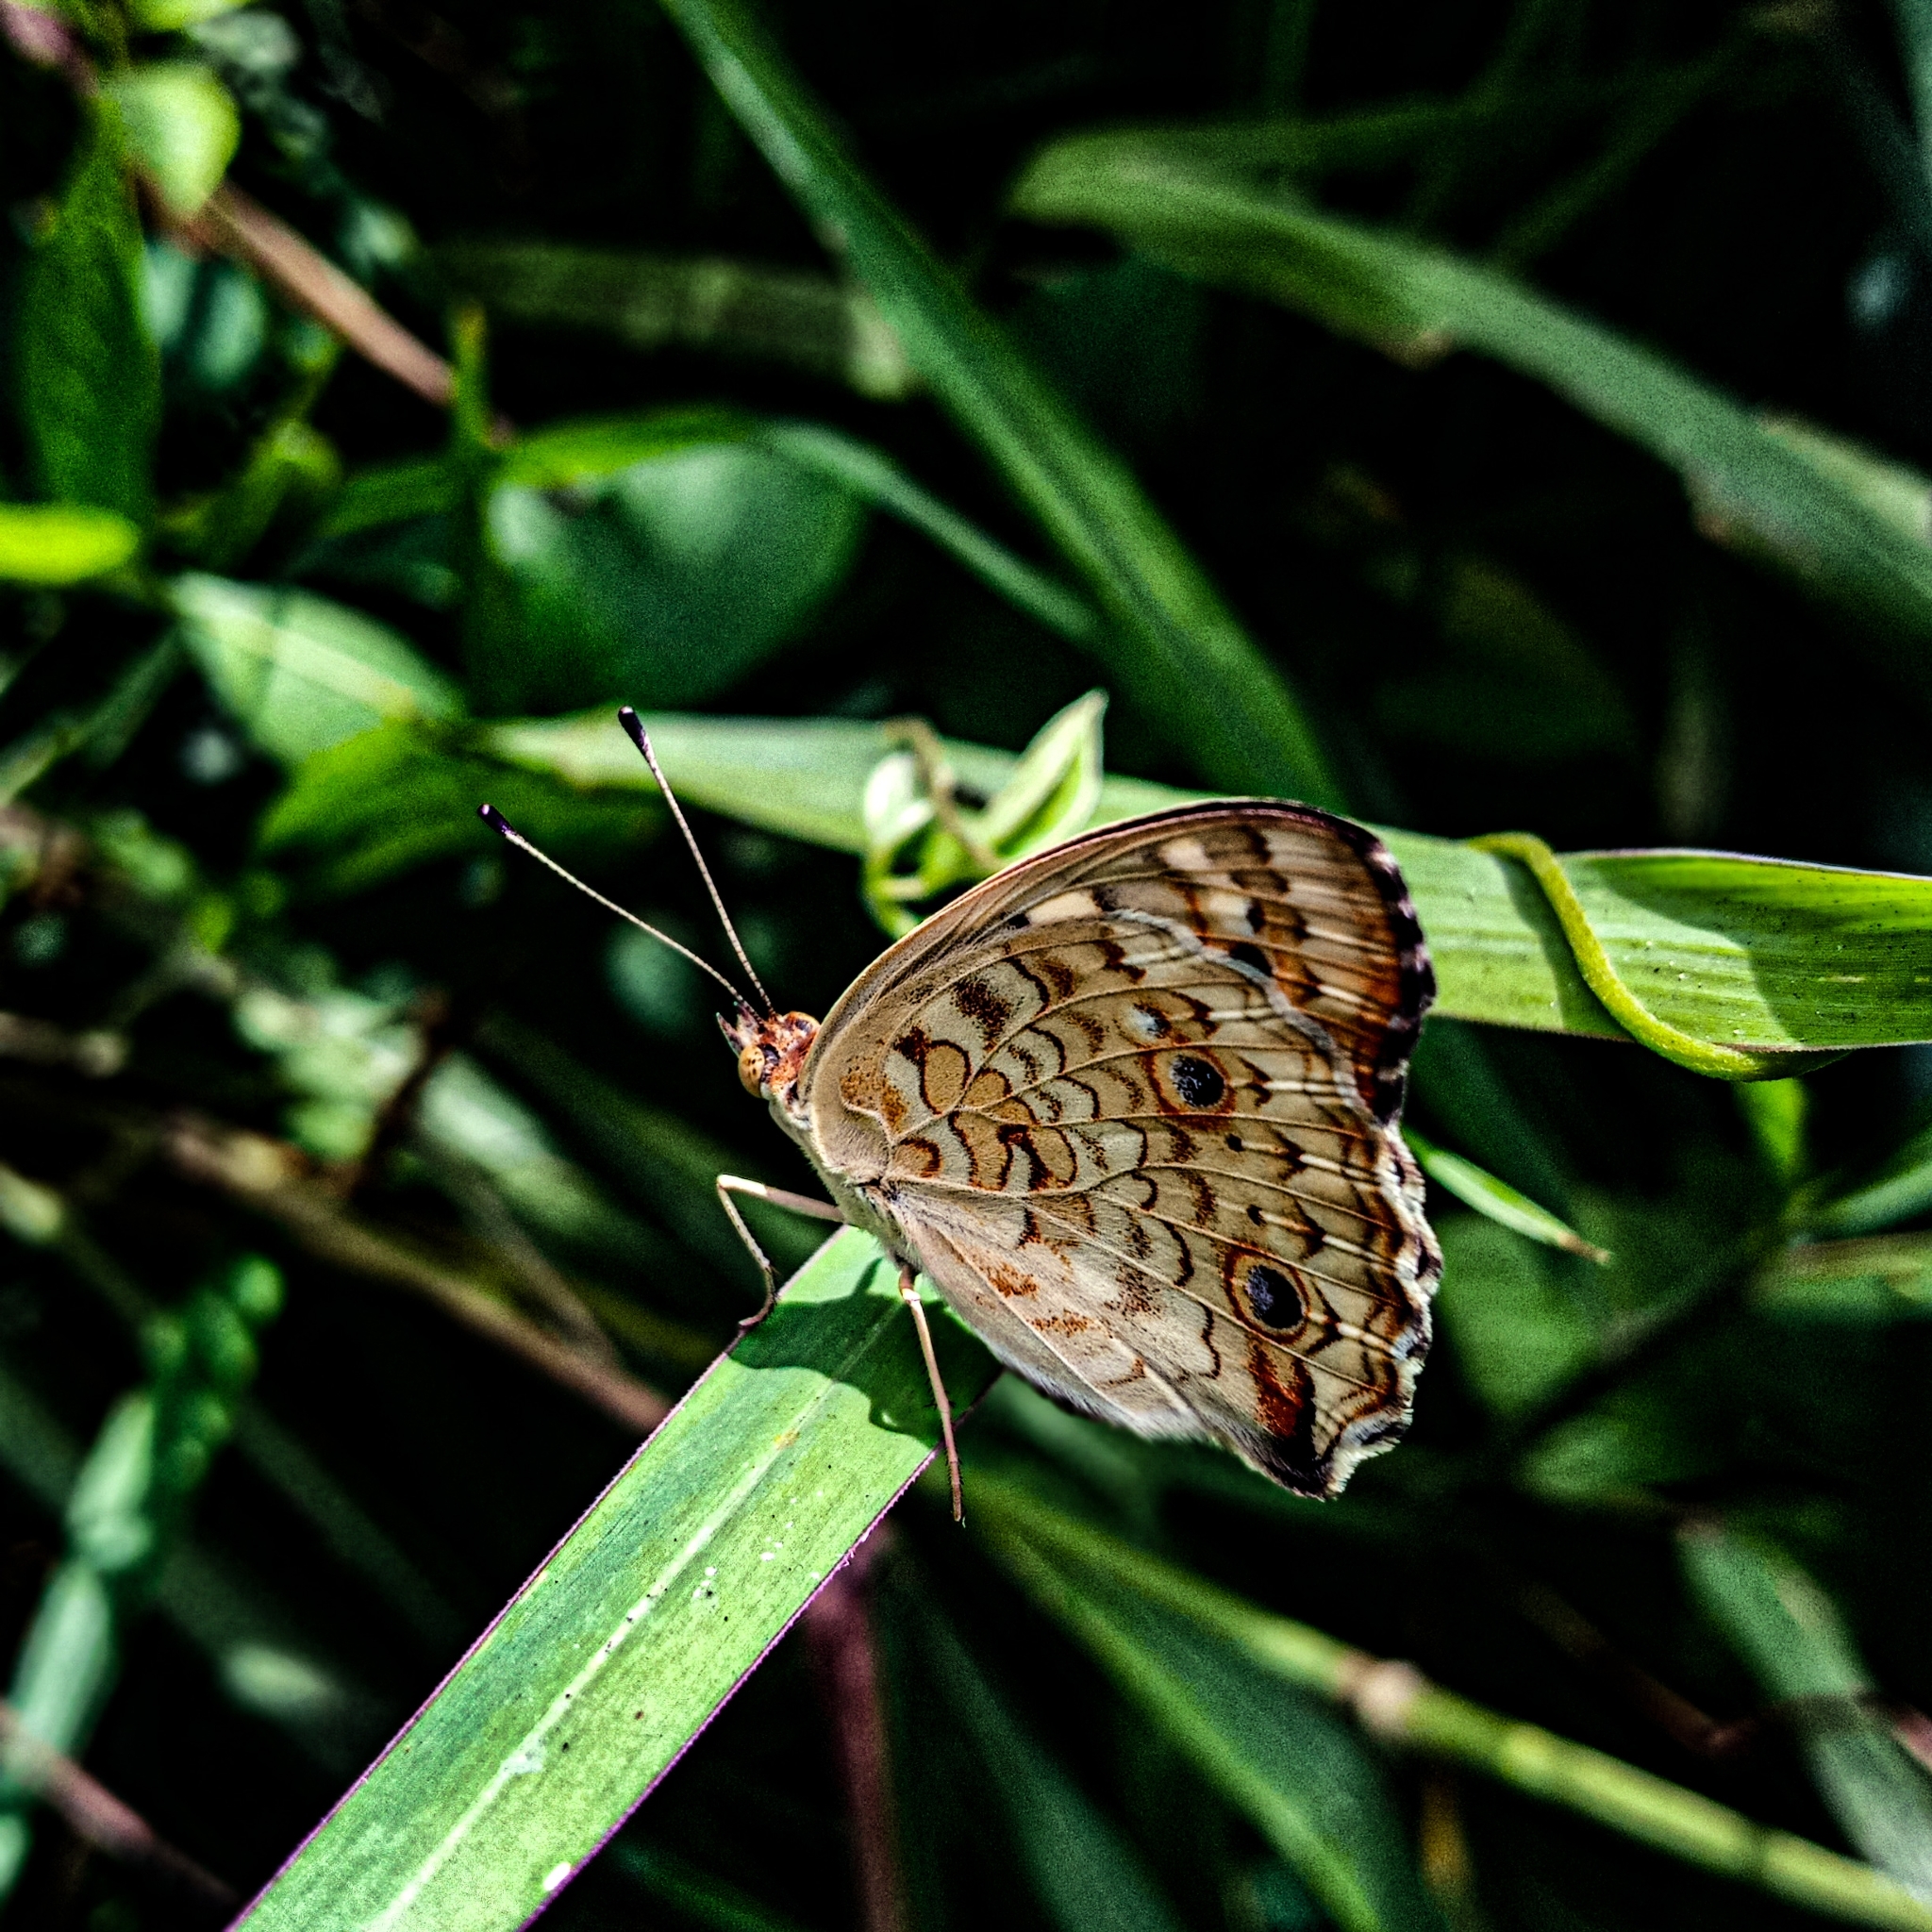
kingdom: Animalia
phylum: Arthropoda
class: Insecta
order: Lepidoptera
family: Nymphalidae
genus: Junonia
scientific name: Junonia orithya
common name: Blue pansy
